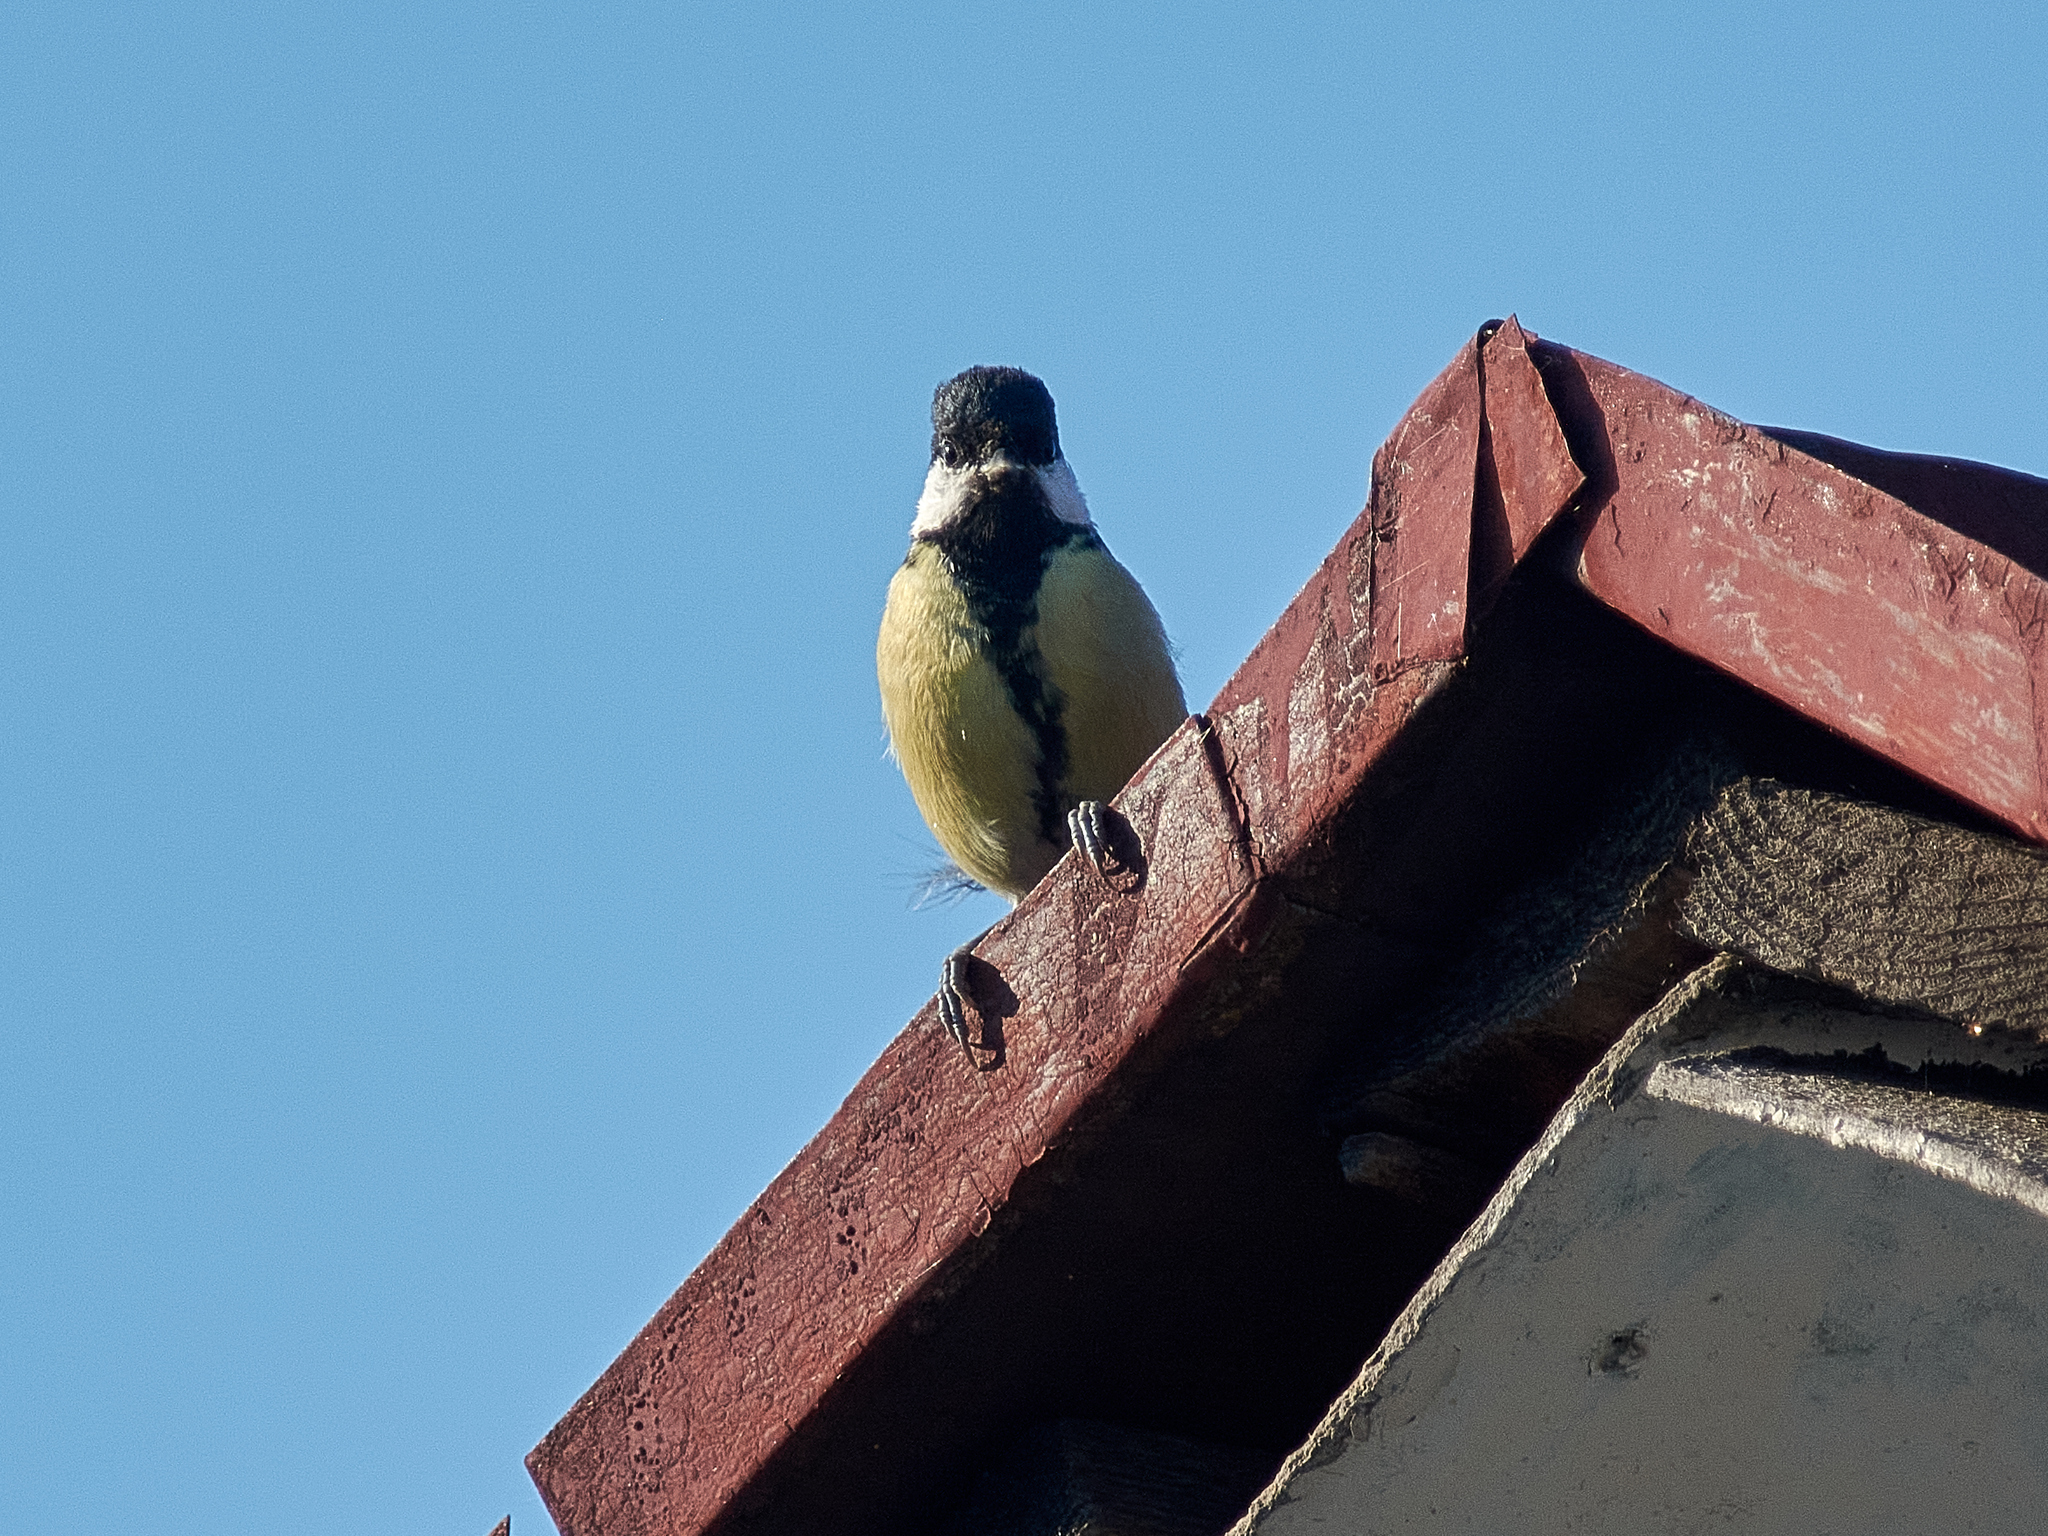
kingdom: Animalia
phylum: Chordata
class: Aves
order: Passeriformes
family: Paridae
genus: Parus
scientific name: Parus major
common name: Great tit
